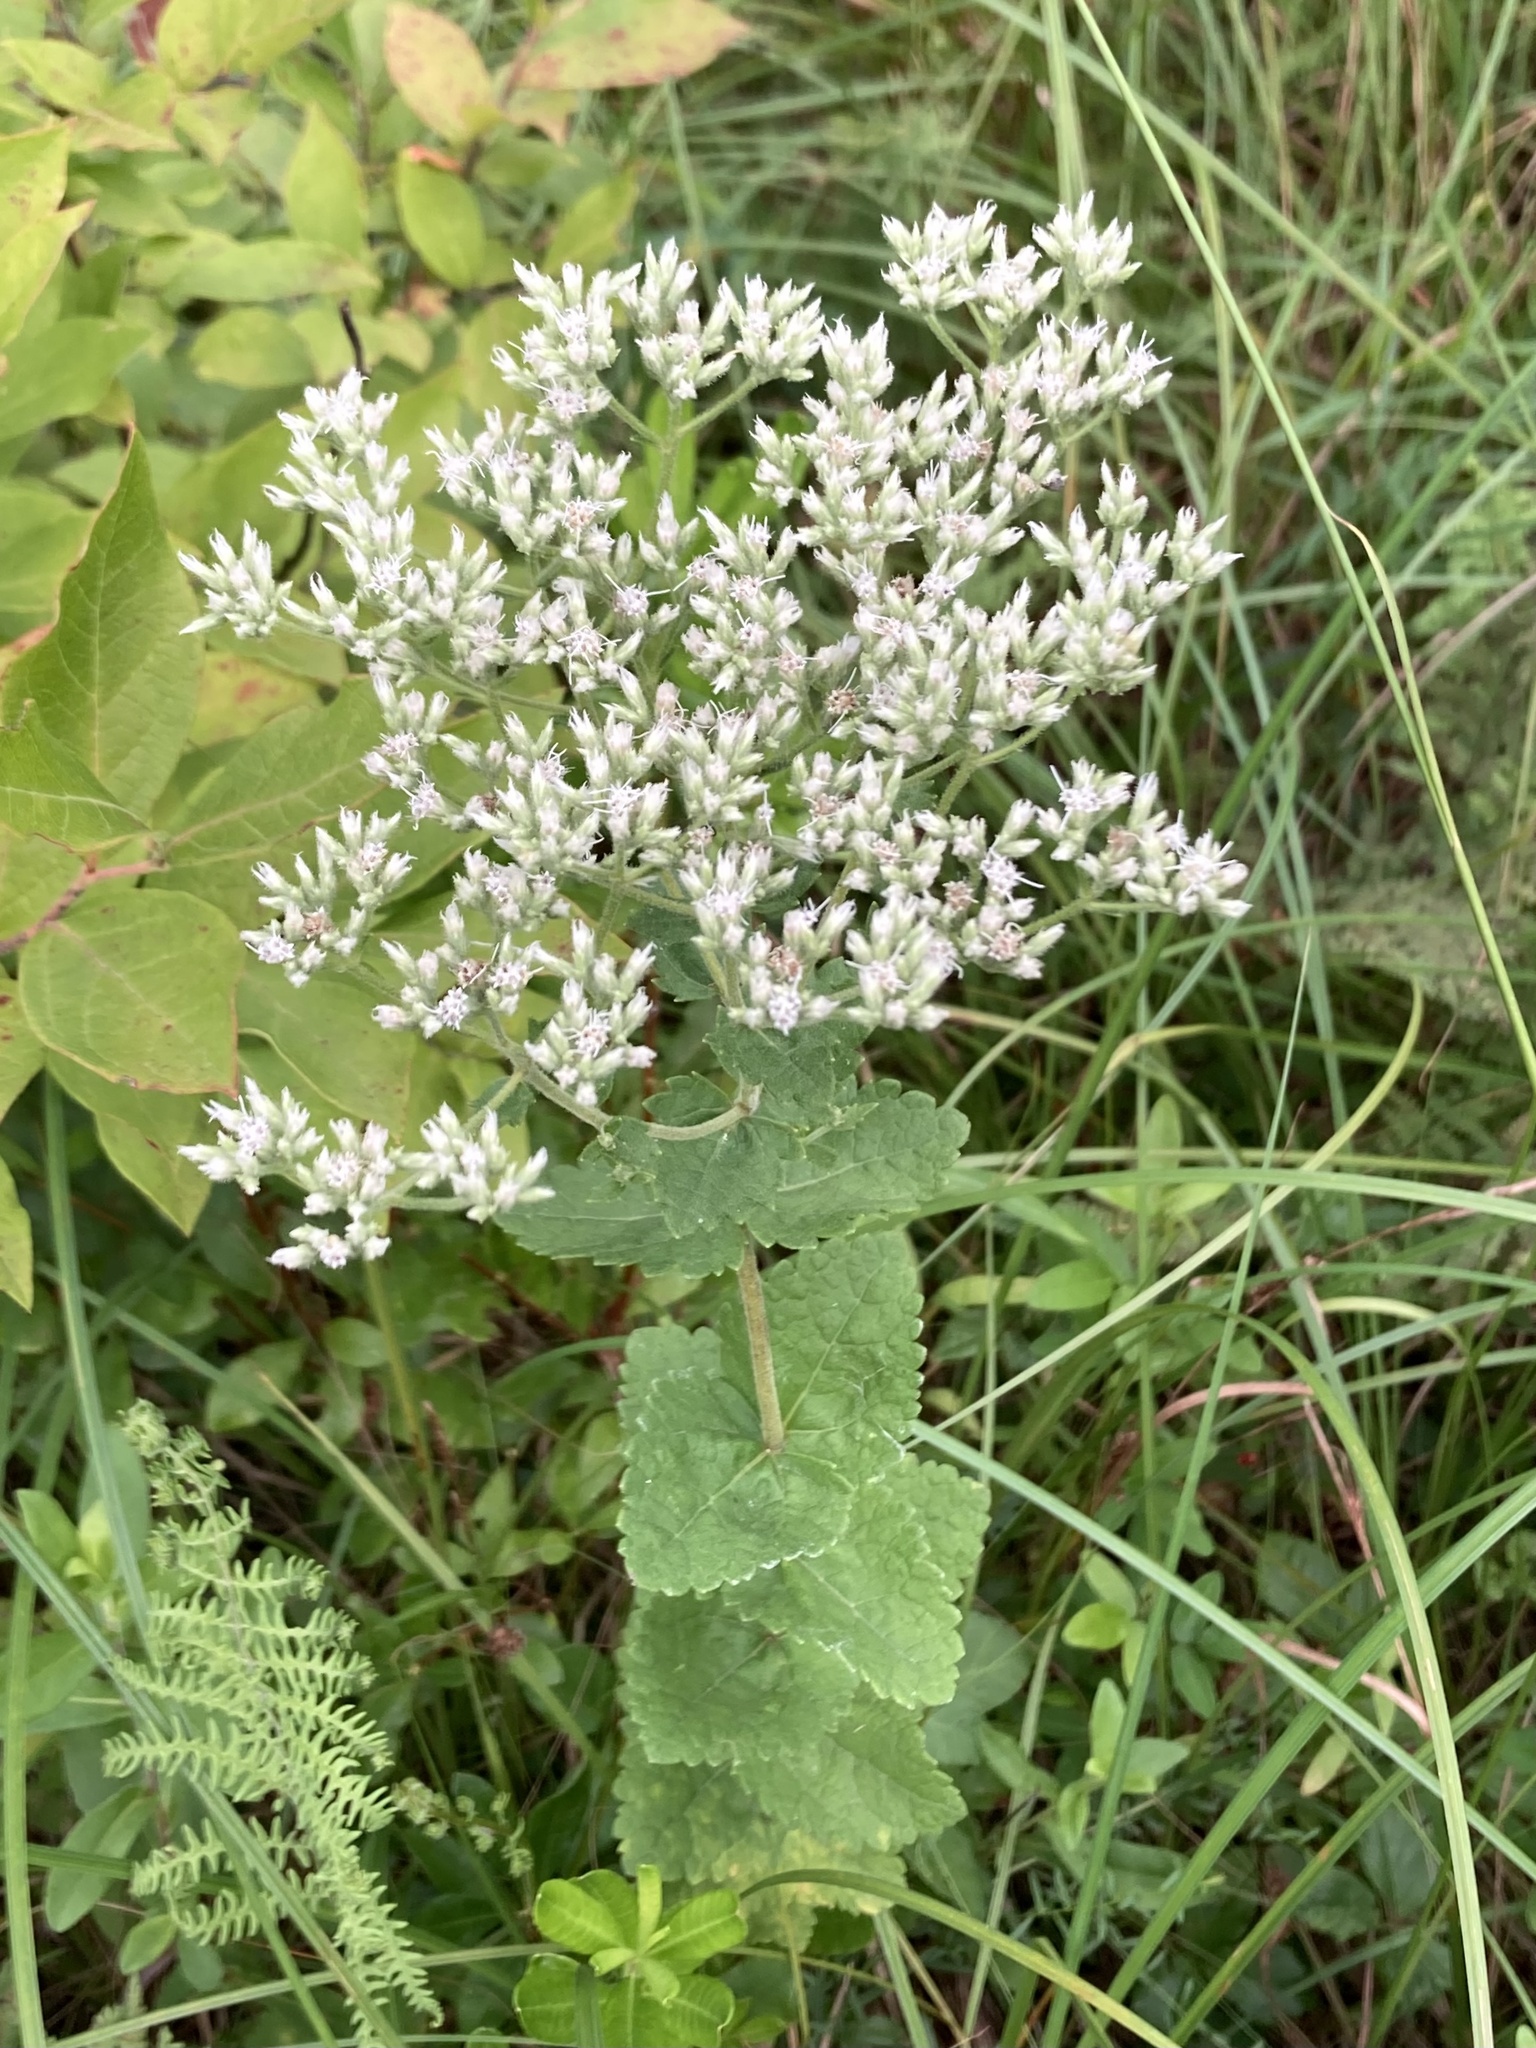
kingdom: Plantae
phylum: Tracheophyta
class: Magnoliopsida
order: Asterales
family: Asteraceae
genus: Eupatorium
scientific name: Eupatorium rotundifolium
